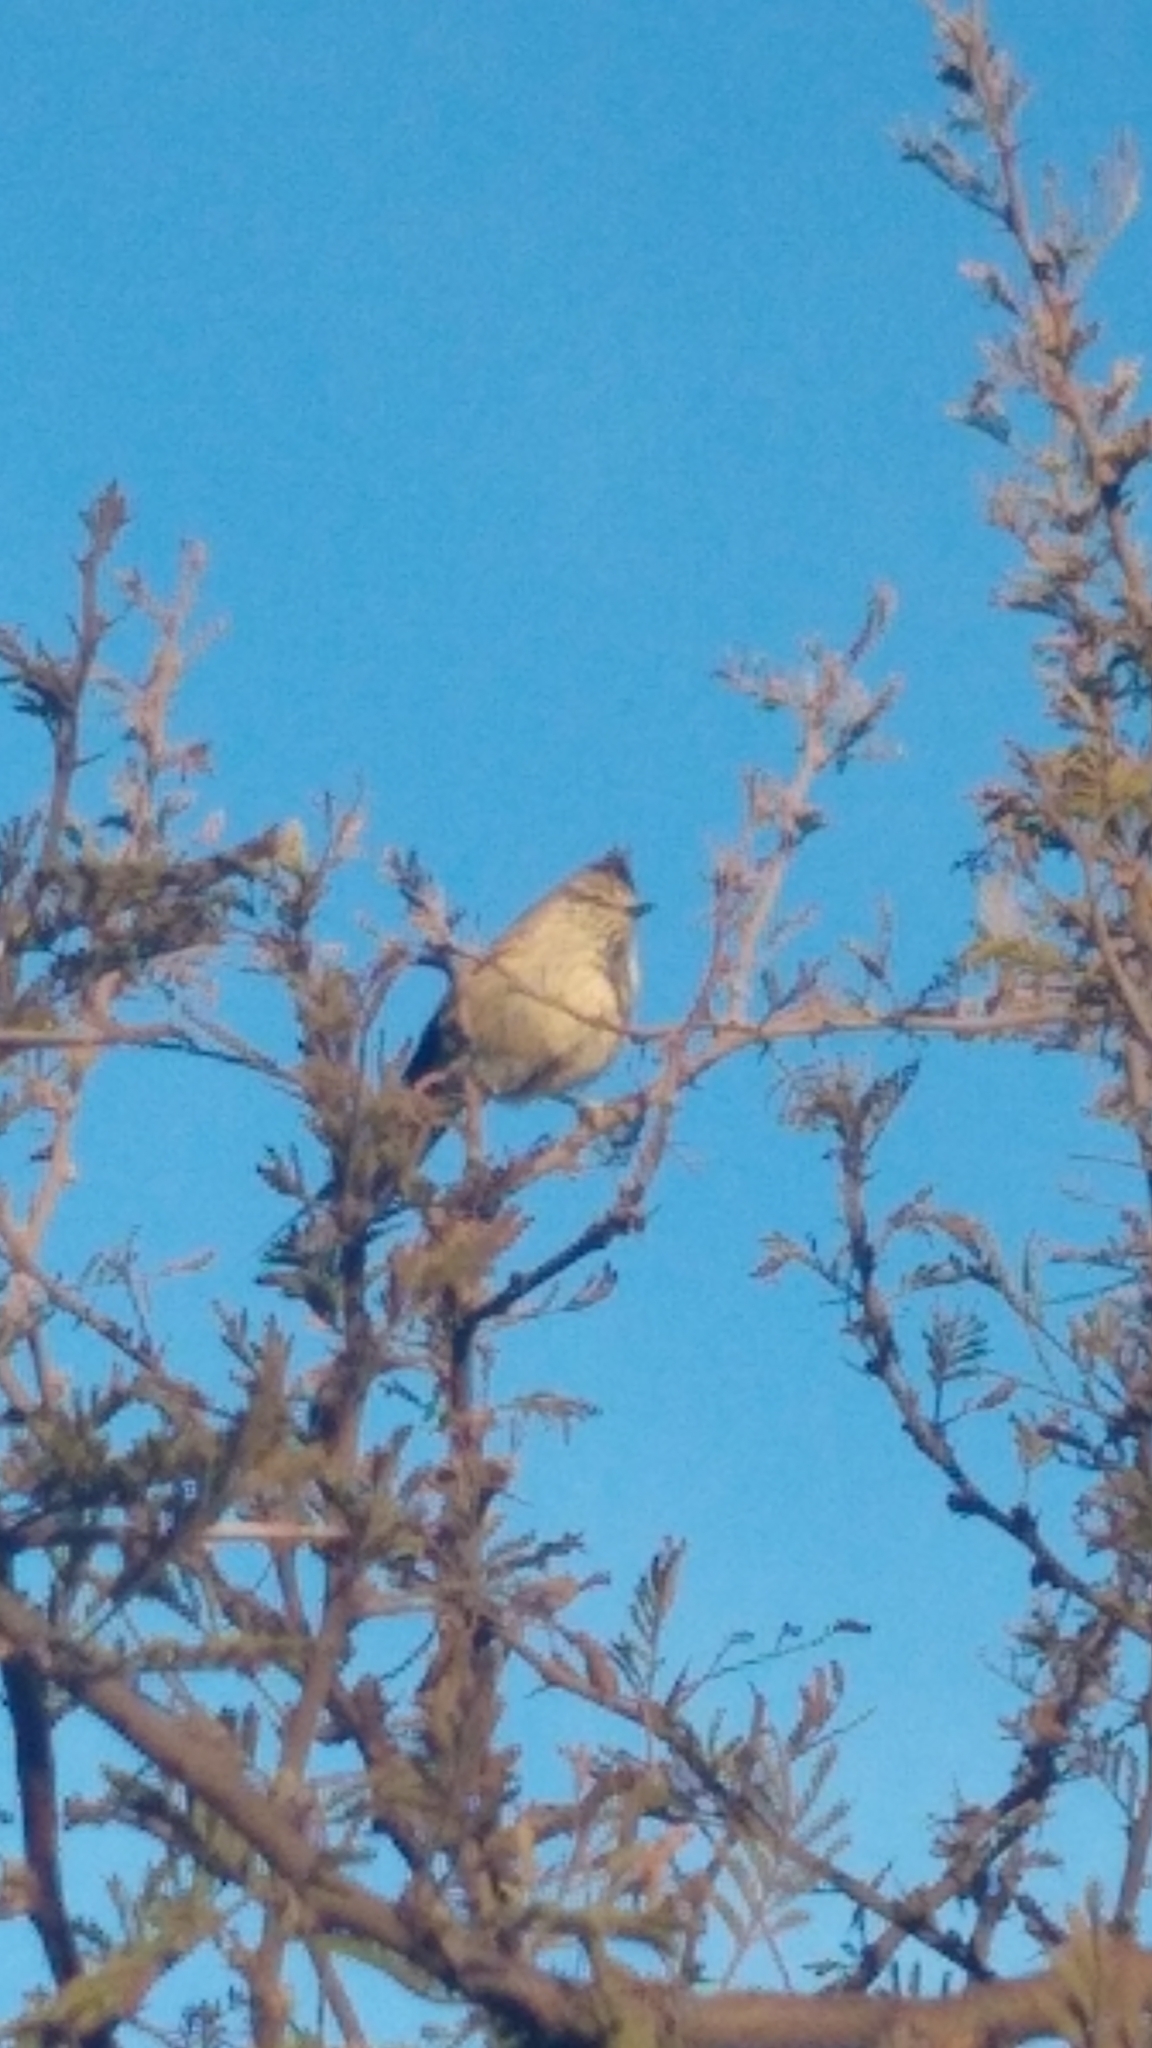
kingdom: Animalia
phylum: Chordata
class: Aves
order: Passeriformes
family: Furnariidae
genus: Leptasthenura
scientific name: Leptasthenura platensis
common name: Tufted tit-spinetail
